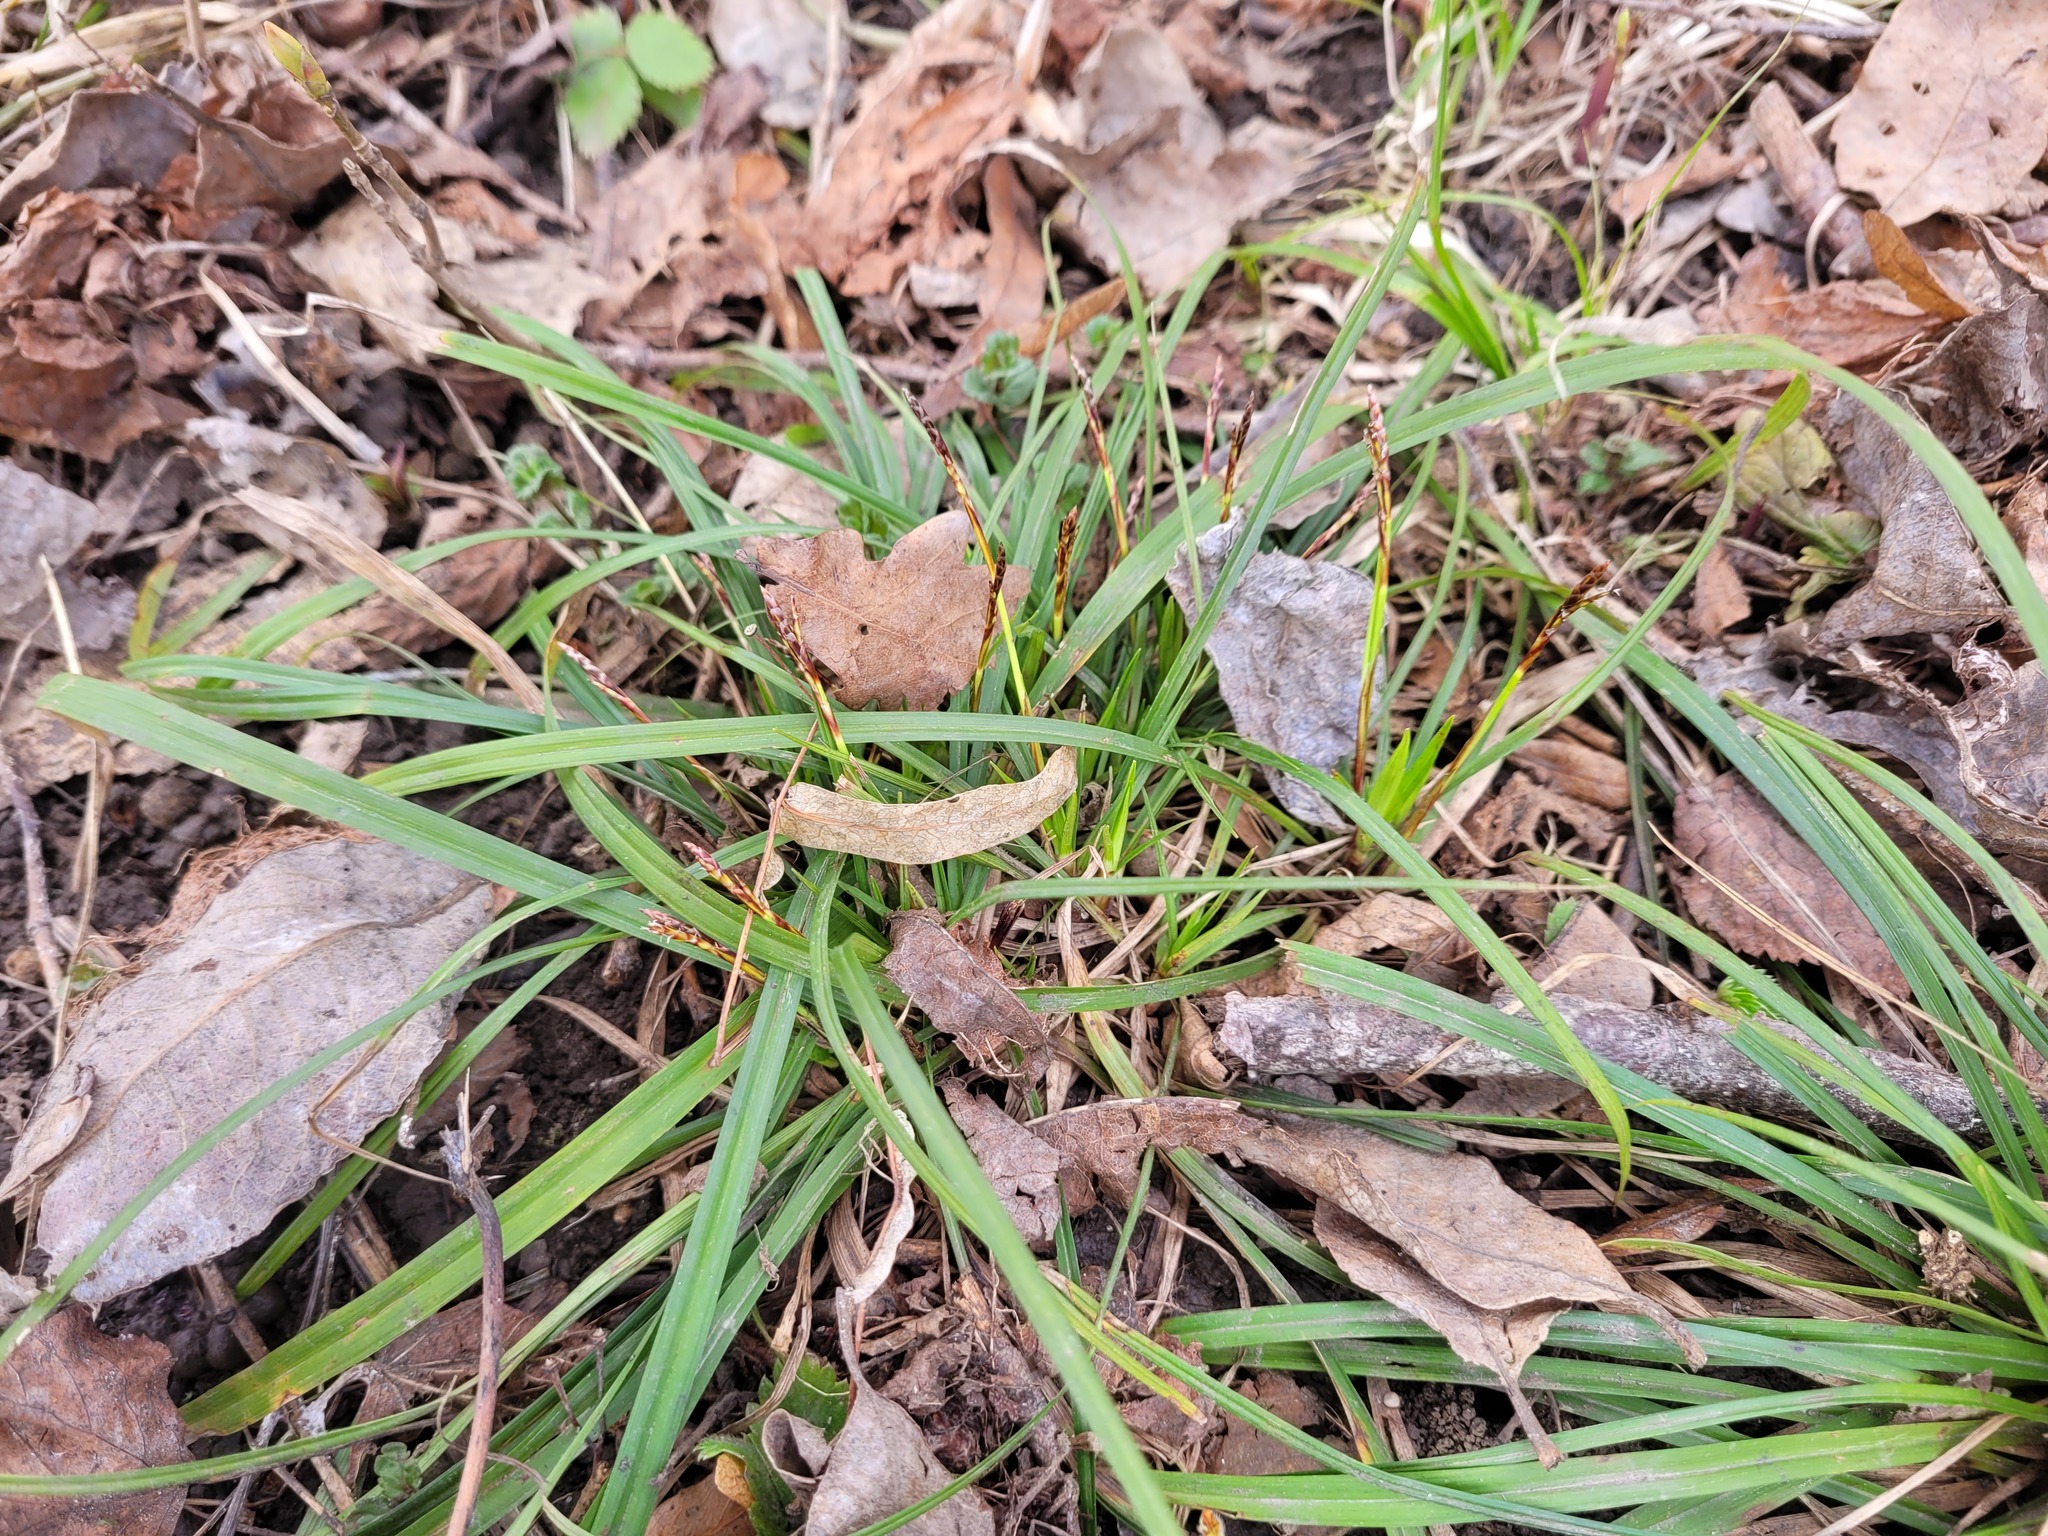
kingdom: Plantae
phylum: Tracheophyta
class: Liliopsida
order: Poales
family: Cyperaceae
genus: Carex
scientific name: Carex digitata
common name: Fingered sedge
